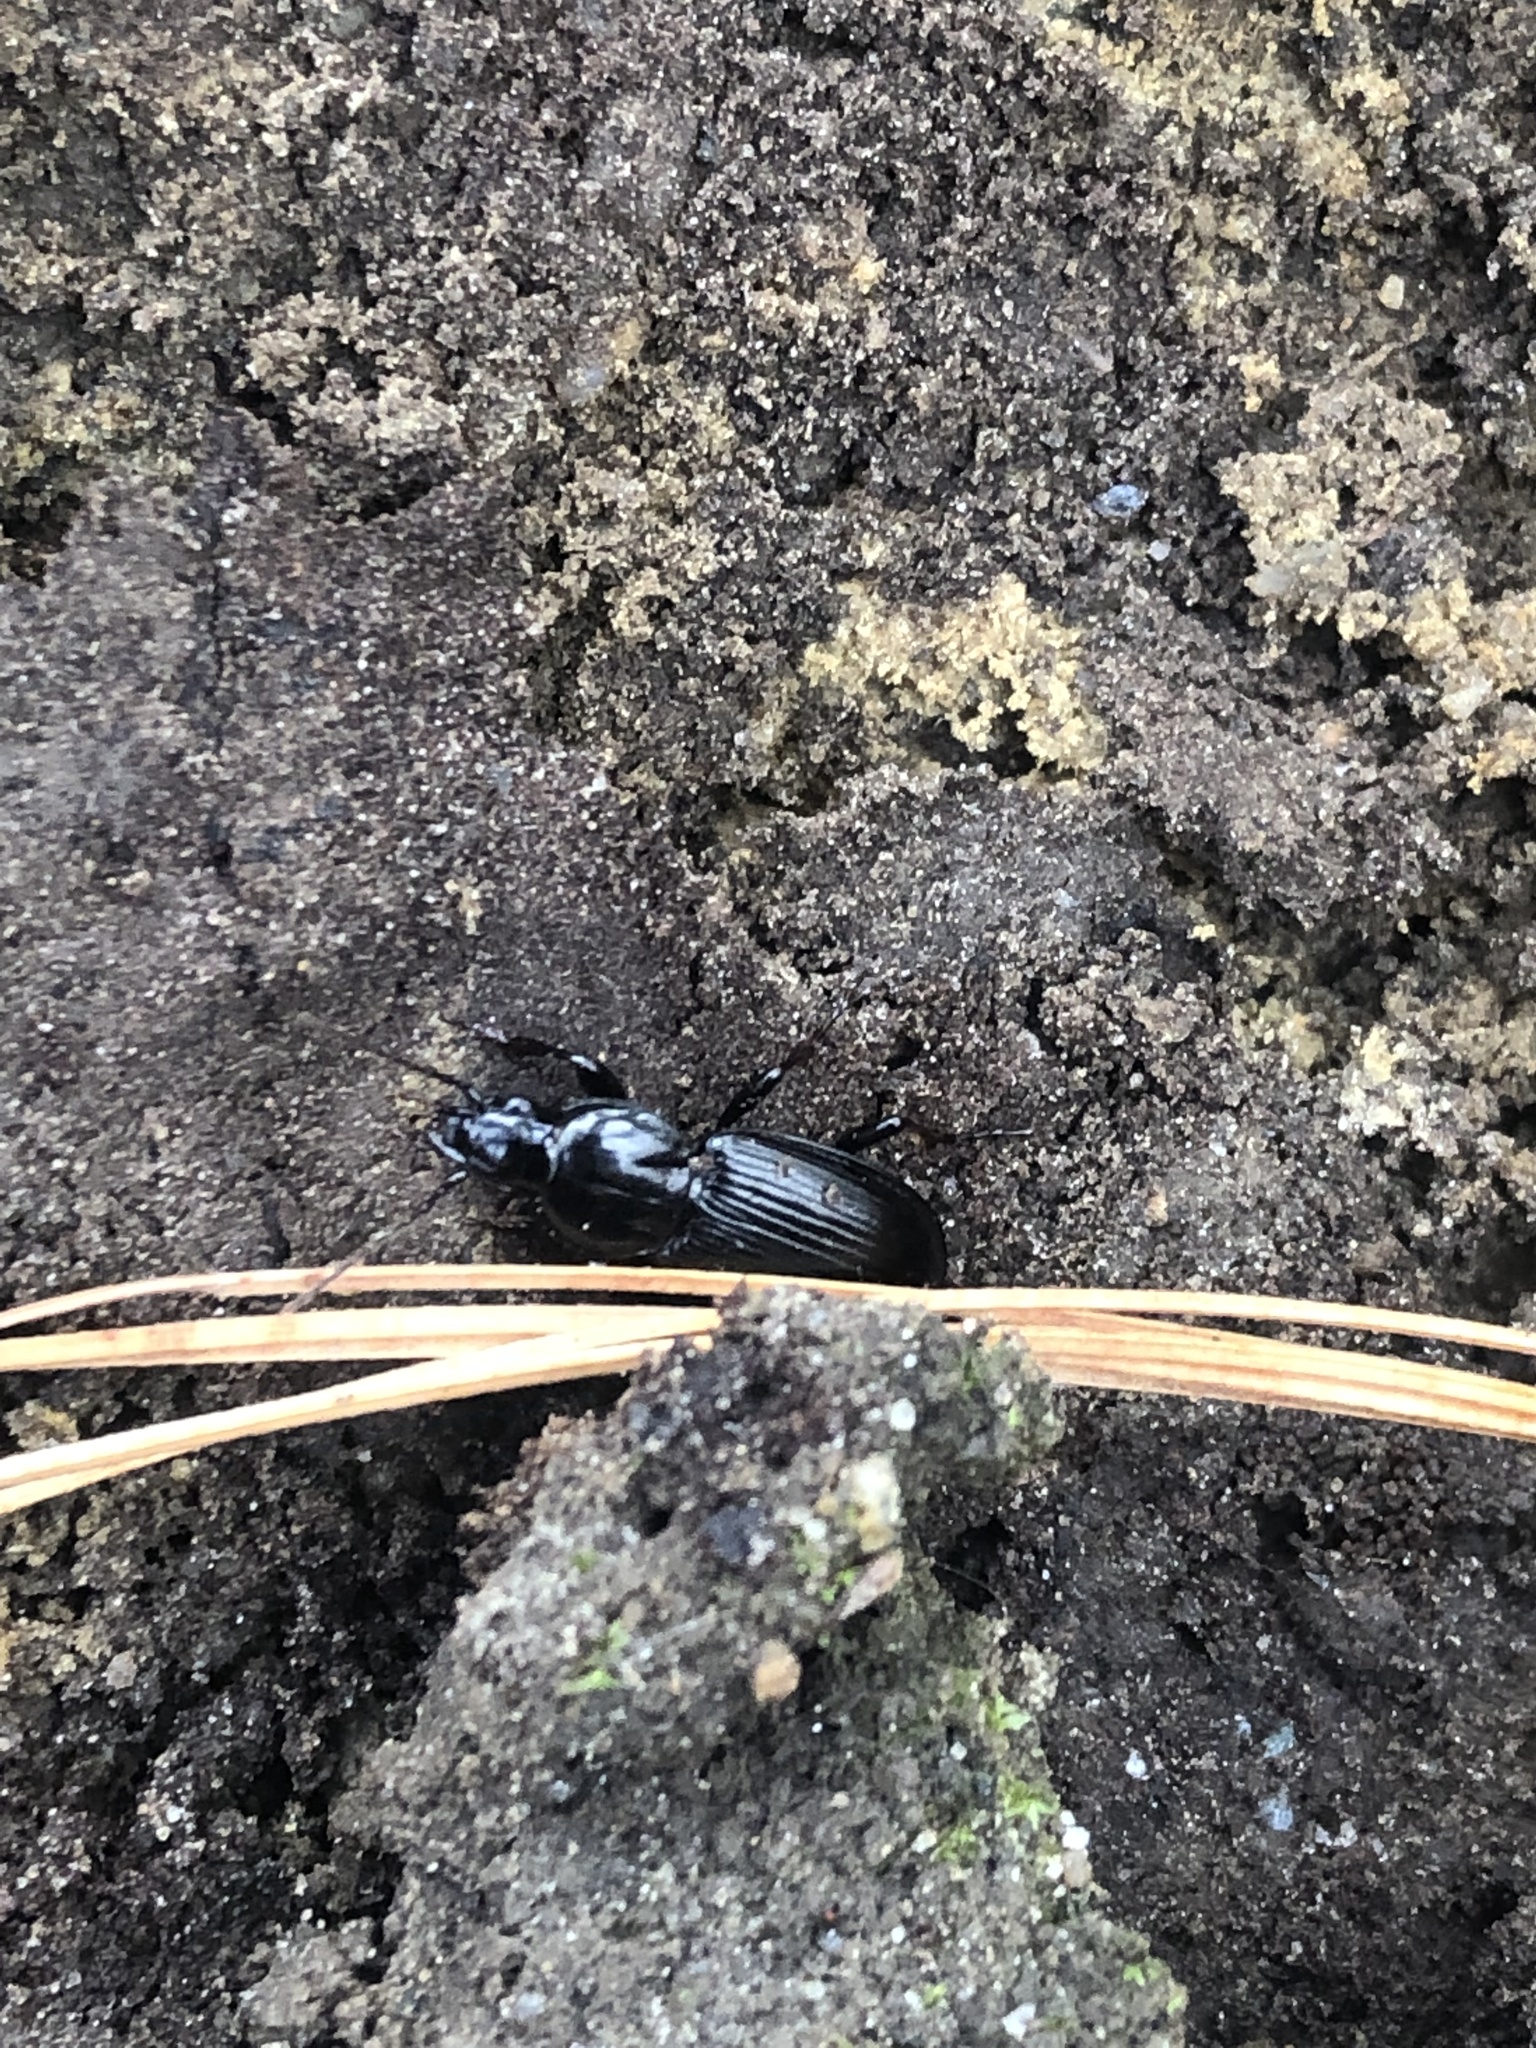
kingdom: Animalia
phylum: Arthropoda
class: Insecta
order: Coleoptera
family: Carabidae
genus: Pterostichus
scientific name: Pterostichus mutus
